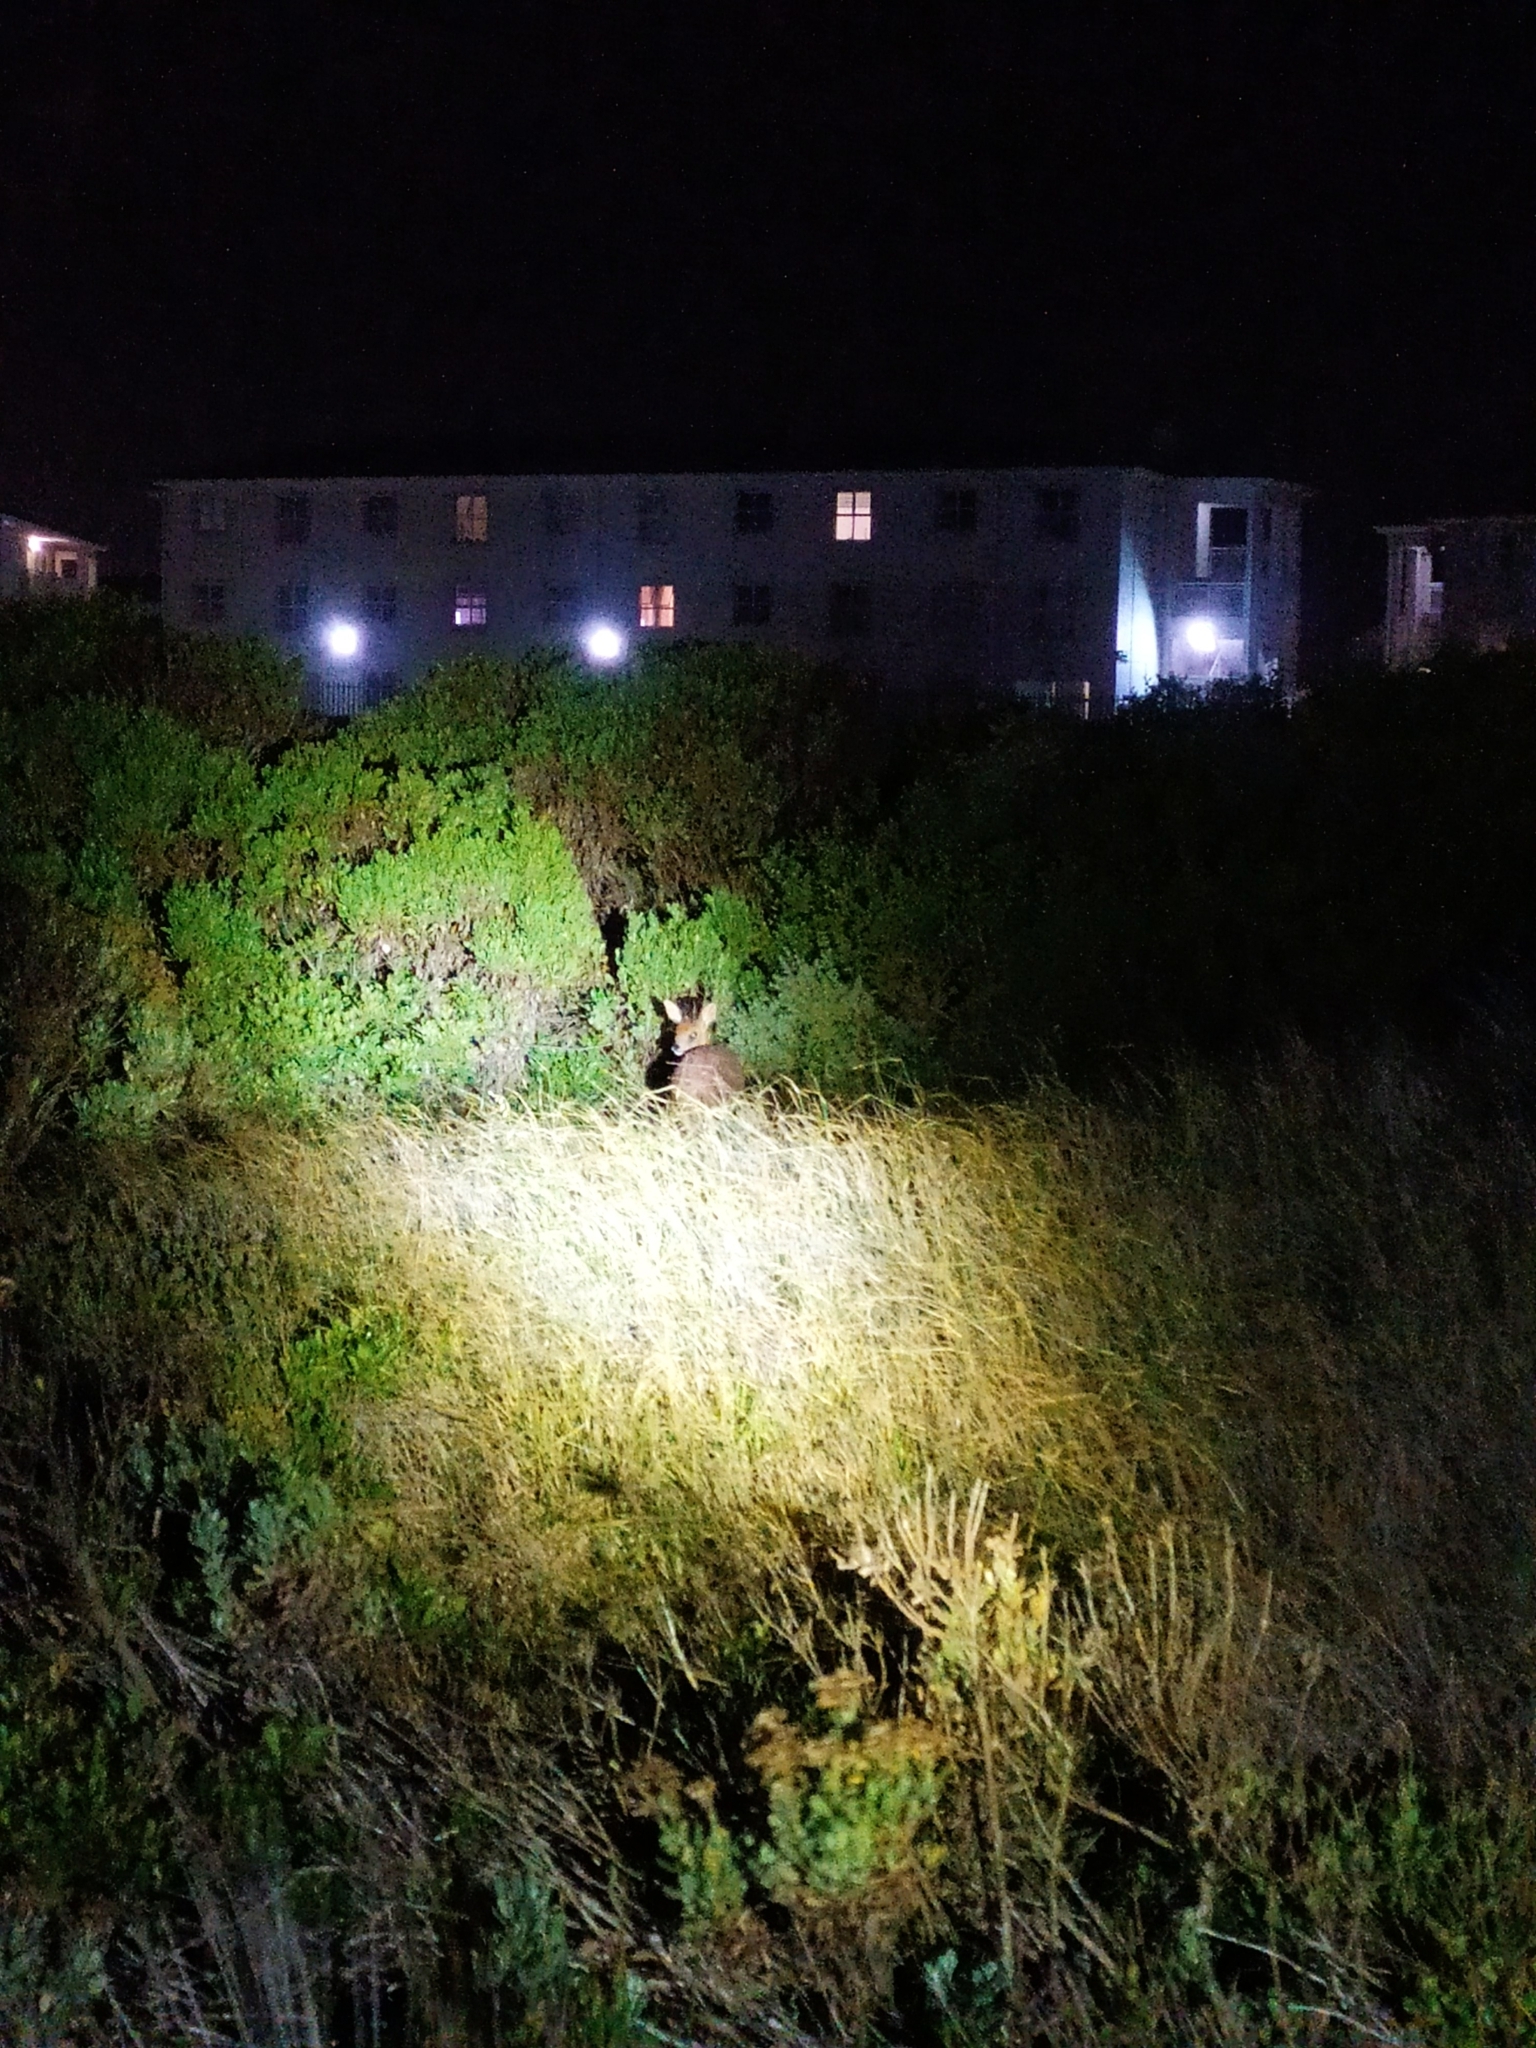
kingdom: Animalia
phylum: Chordata
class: Mammalia
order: Artiodactyla
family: Bovidae
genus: Raphicerus
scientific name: Raphicerus melanotis
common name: Cape grysbok
